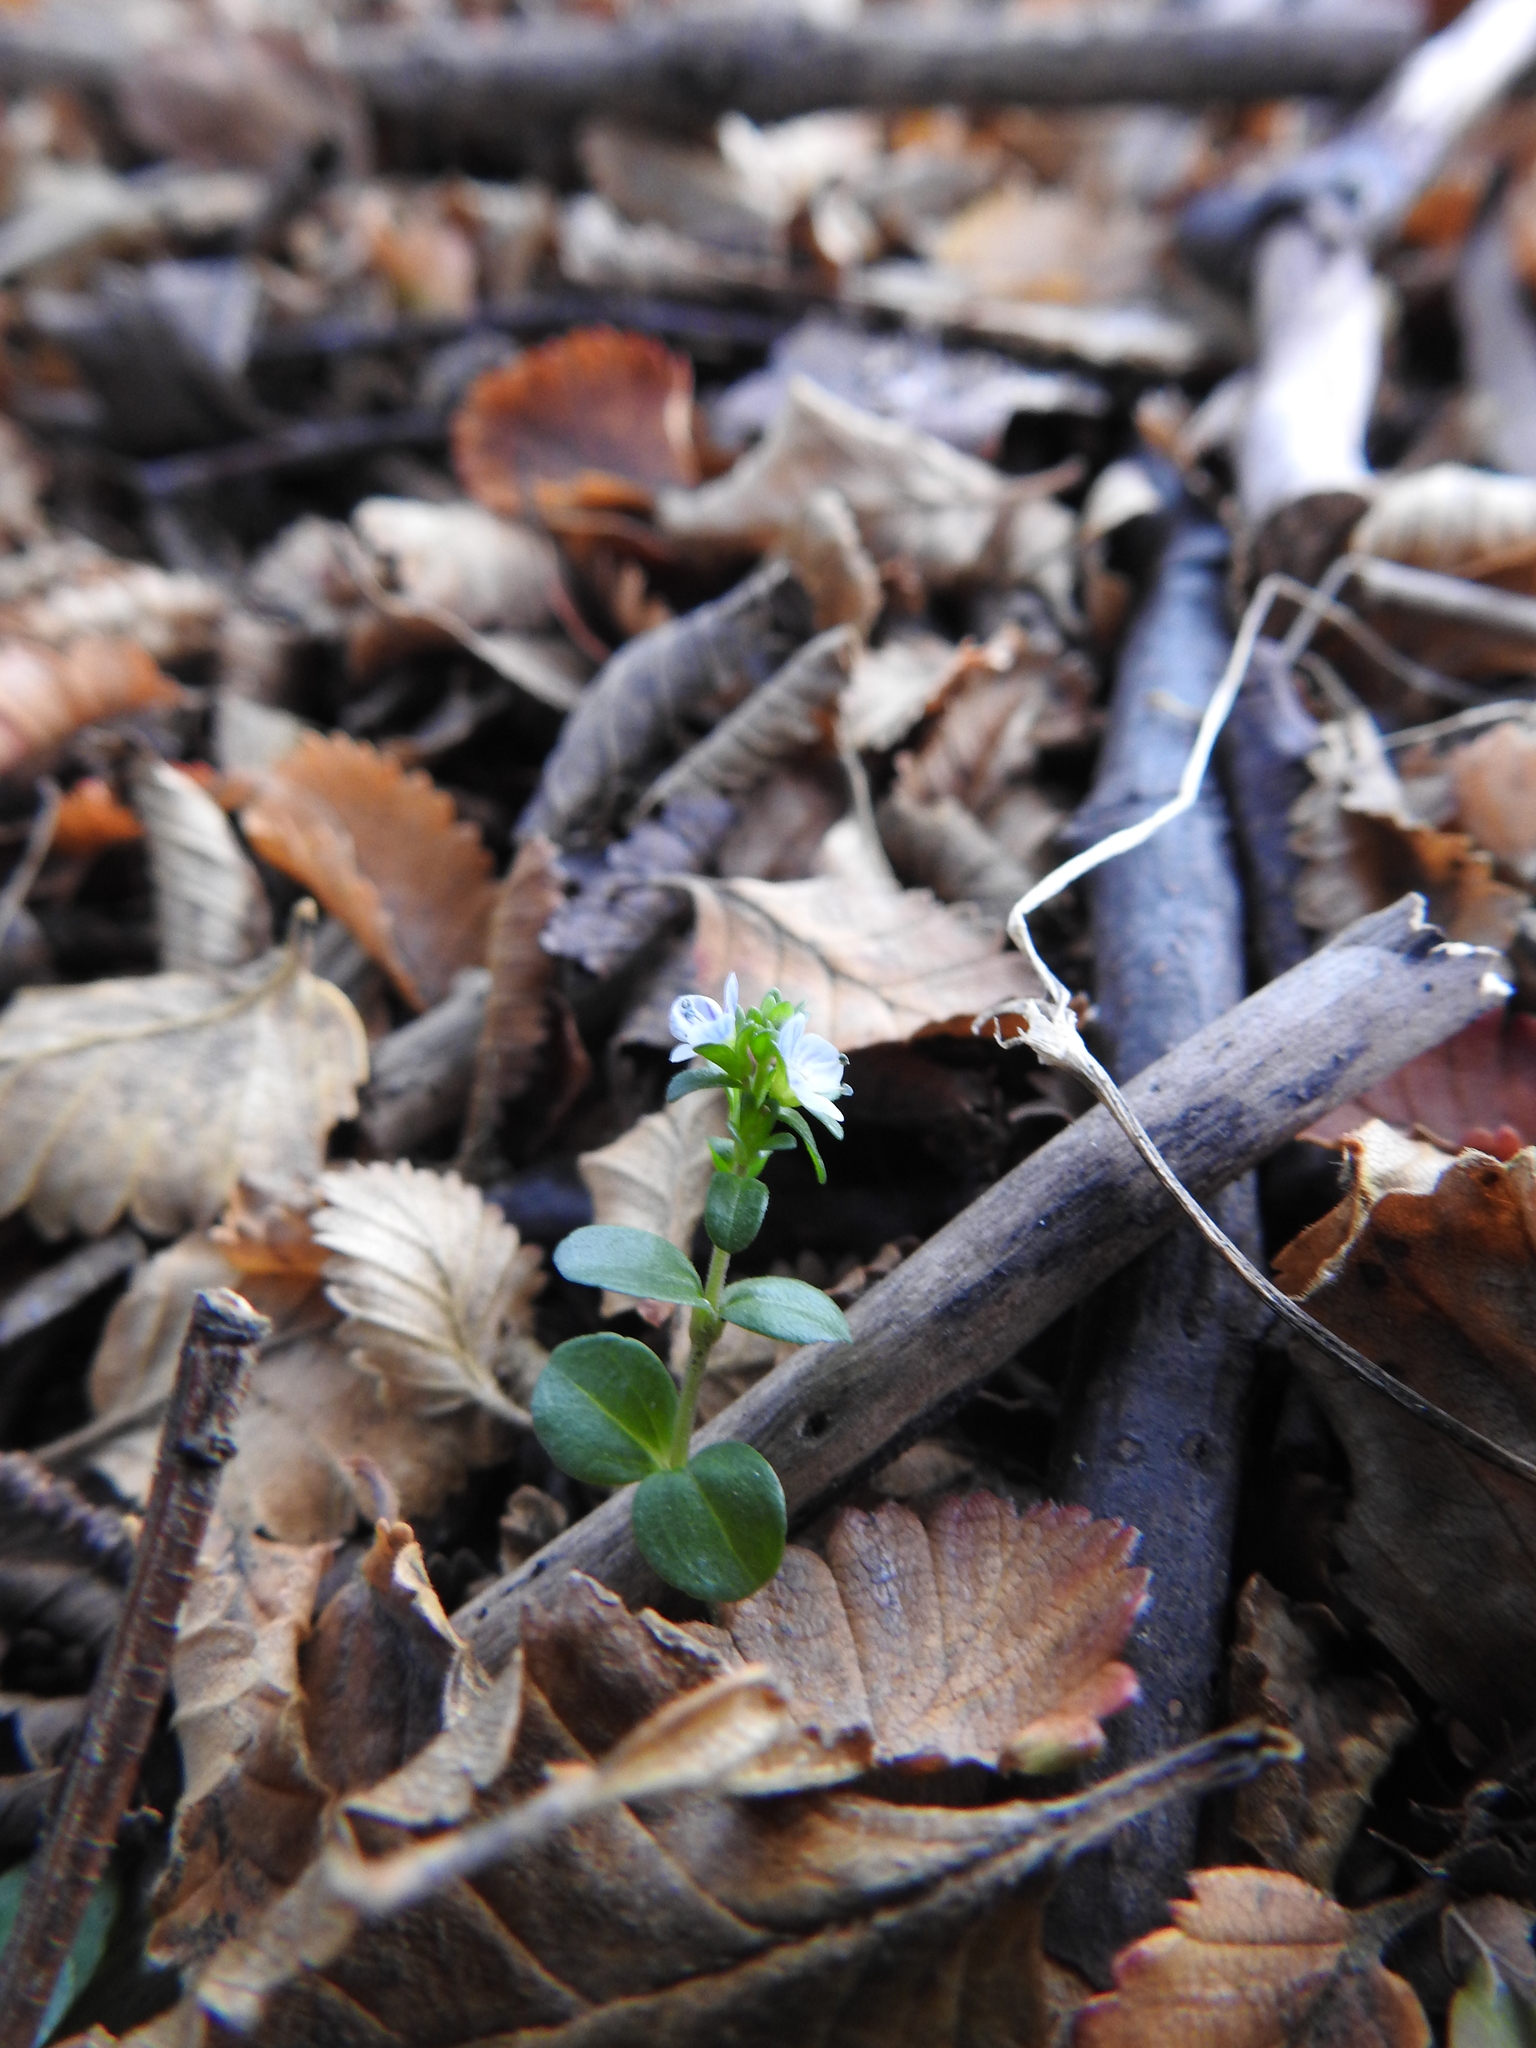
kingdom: Plantae
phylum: Tracheophyta
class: Magnoliopsida
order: Lamiales
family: Plantaginaceae
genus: Veronica
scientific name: Veronica serpyllifolia
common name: Thyme-leaved speedwell
